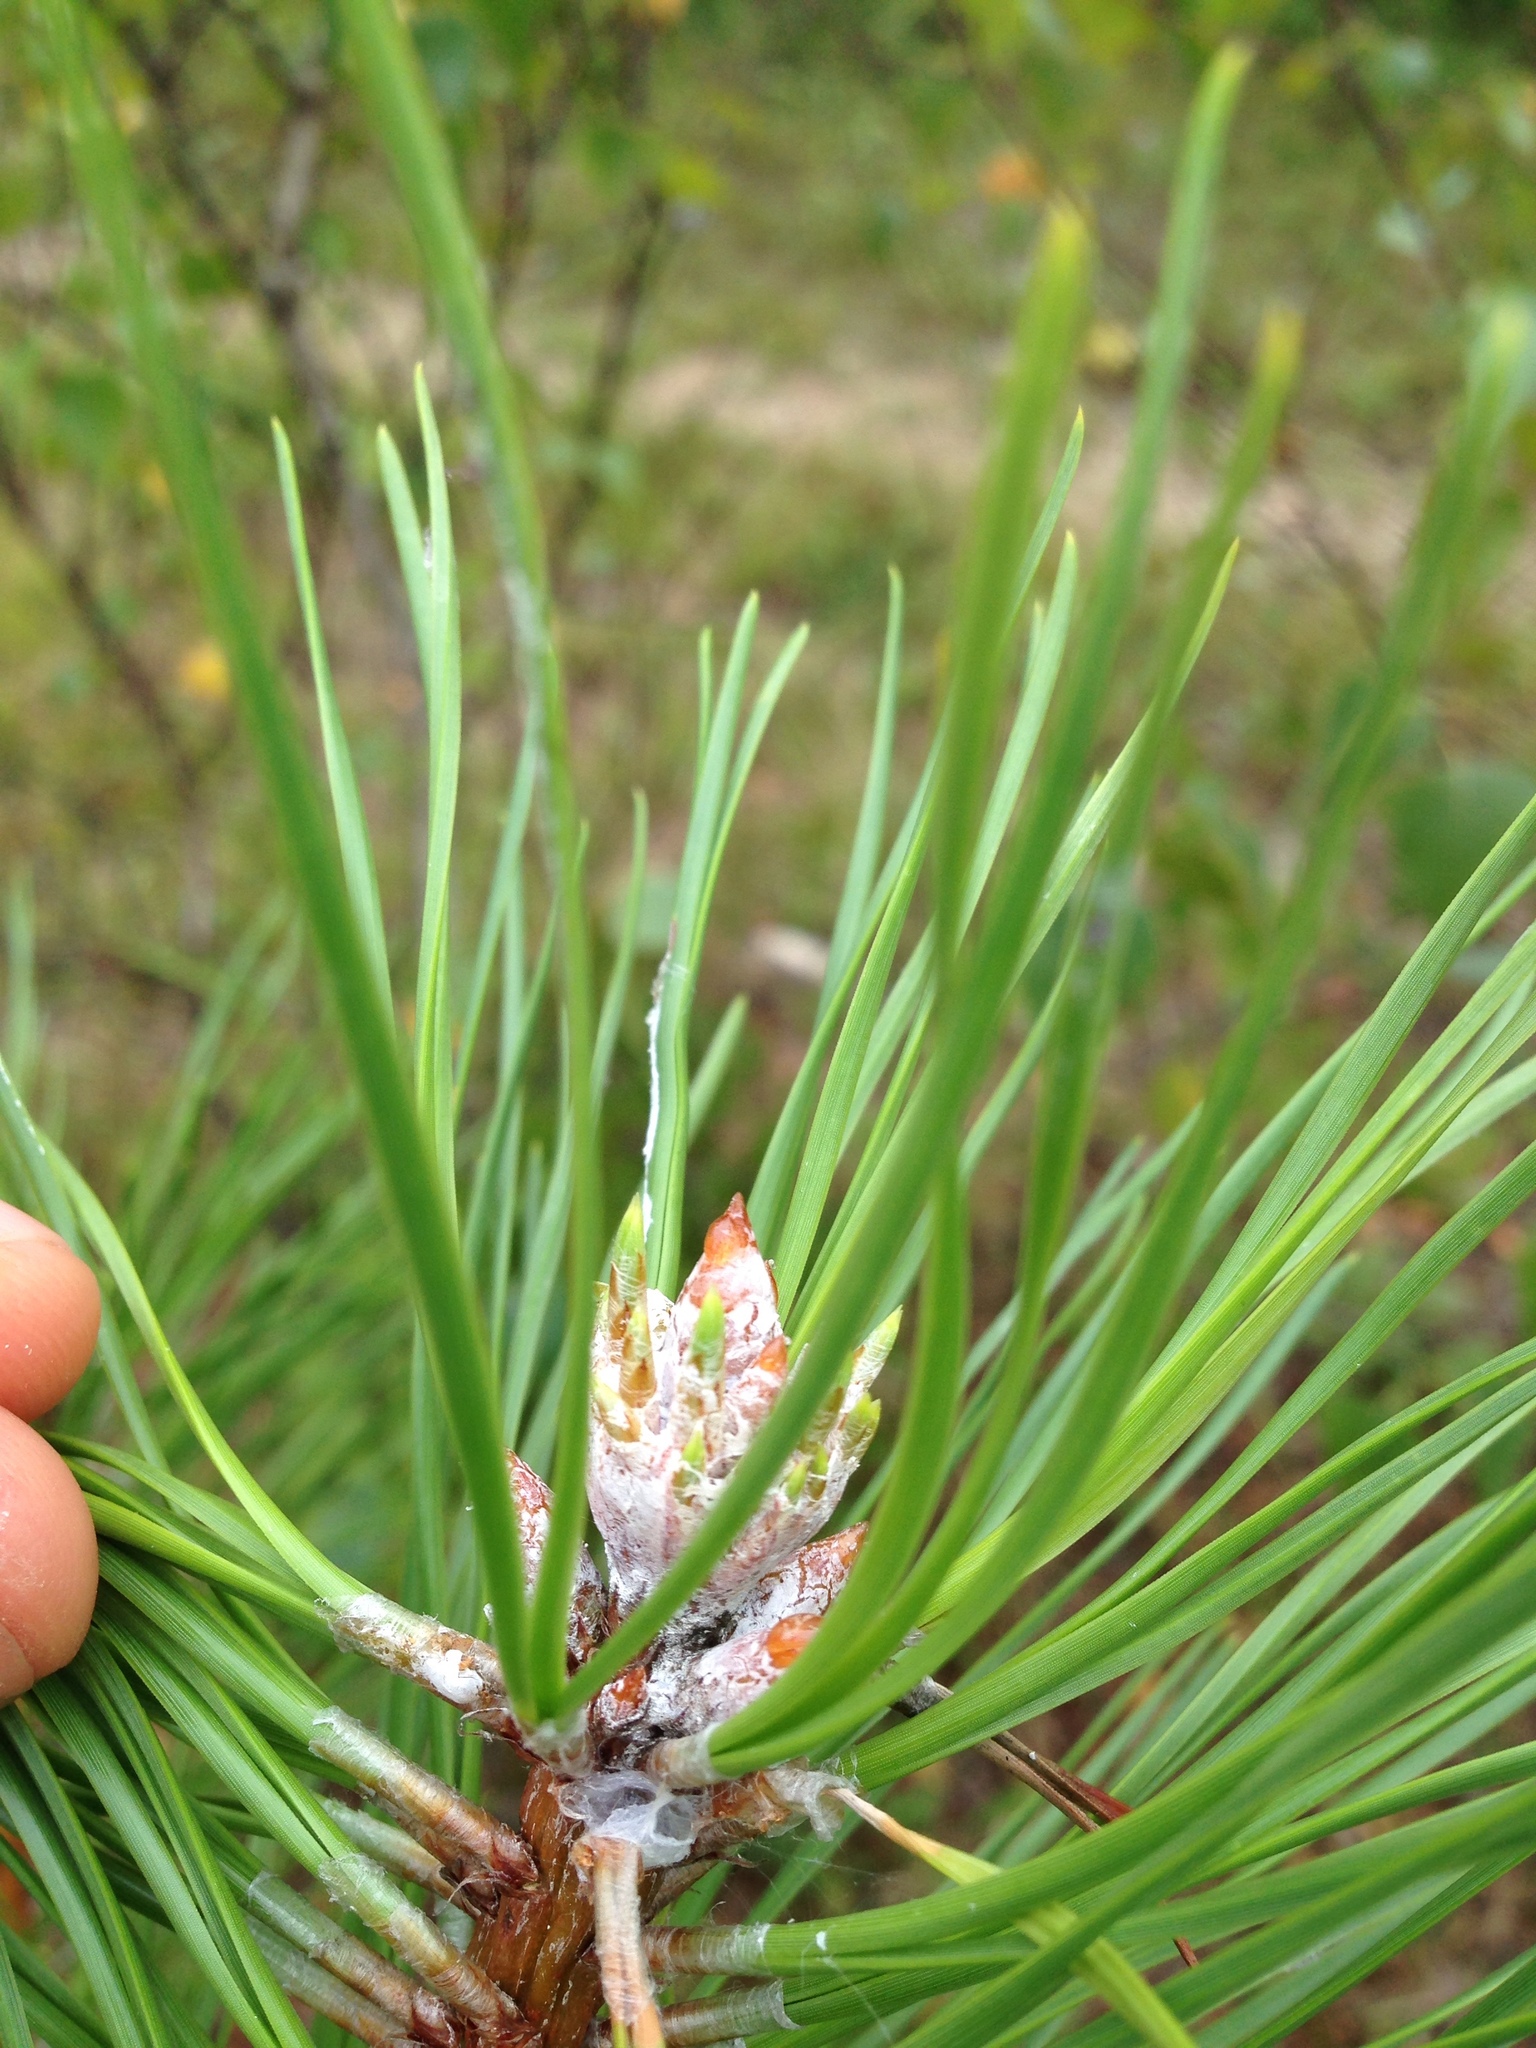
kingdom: Plantae
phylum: Tracheophyta
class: Pinopsida
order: Pinales
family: Pinaceae
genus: Pinus
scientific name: Pinus rigida
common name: Pitch pine
